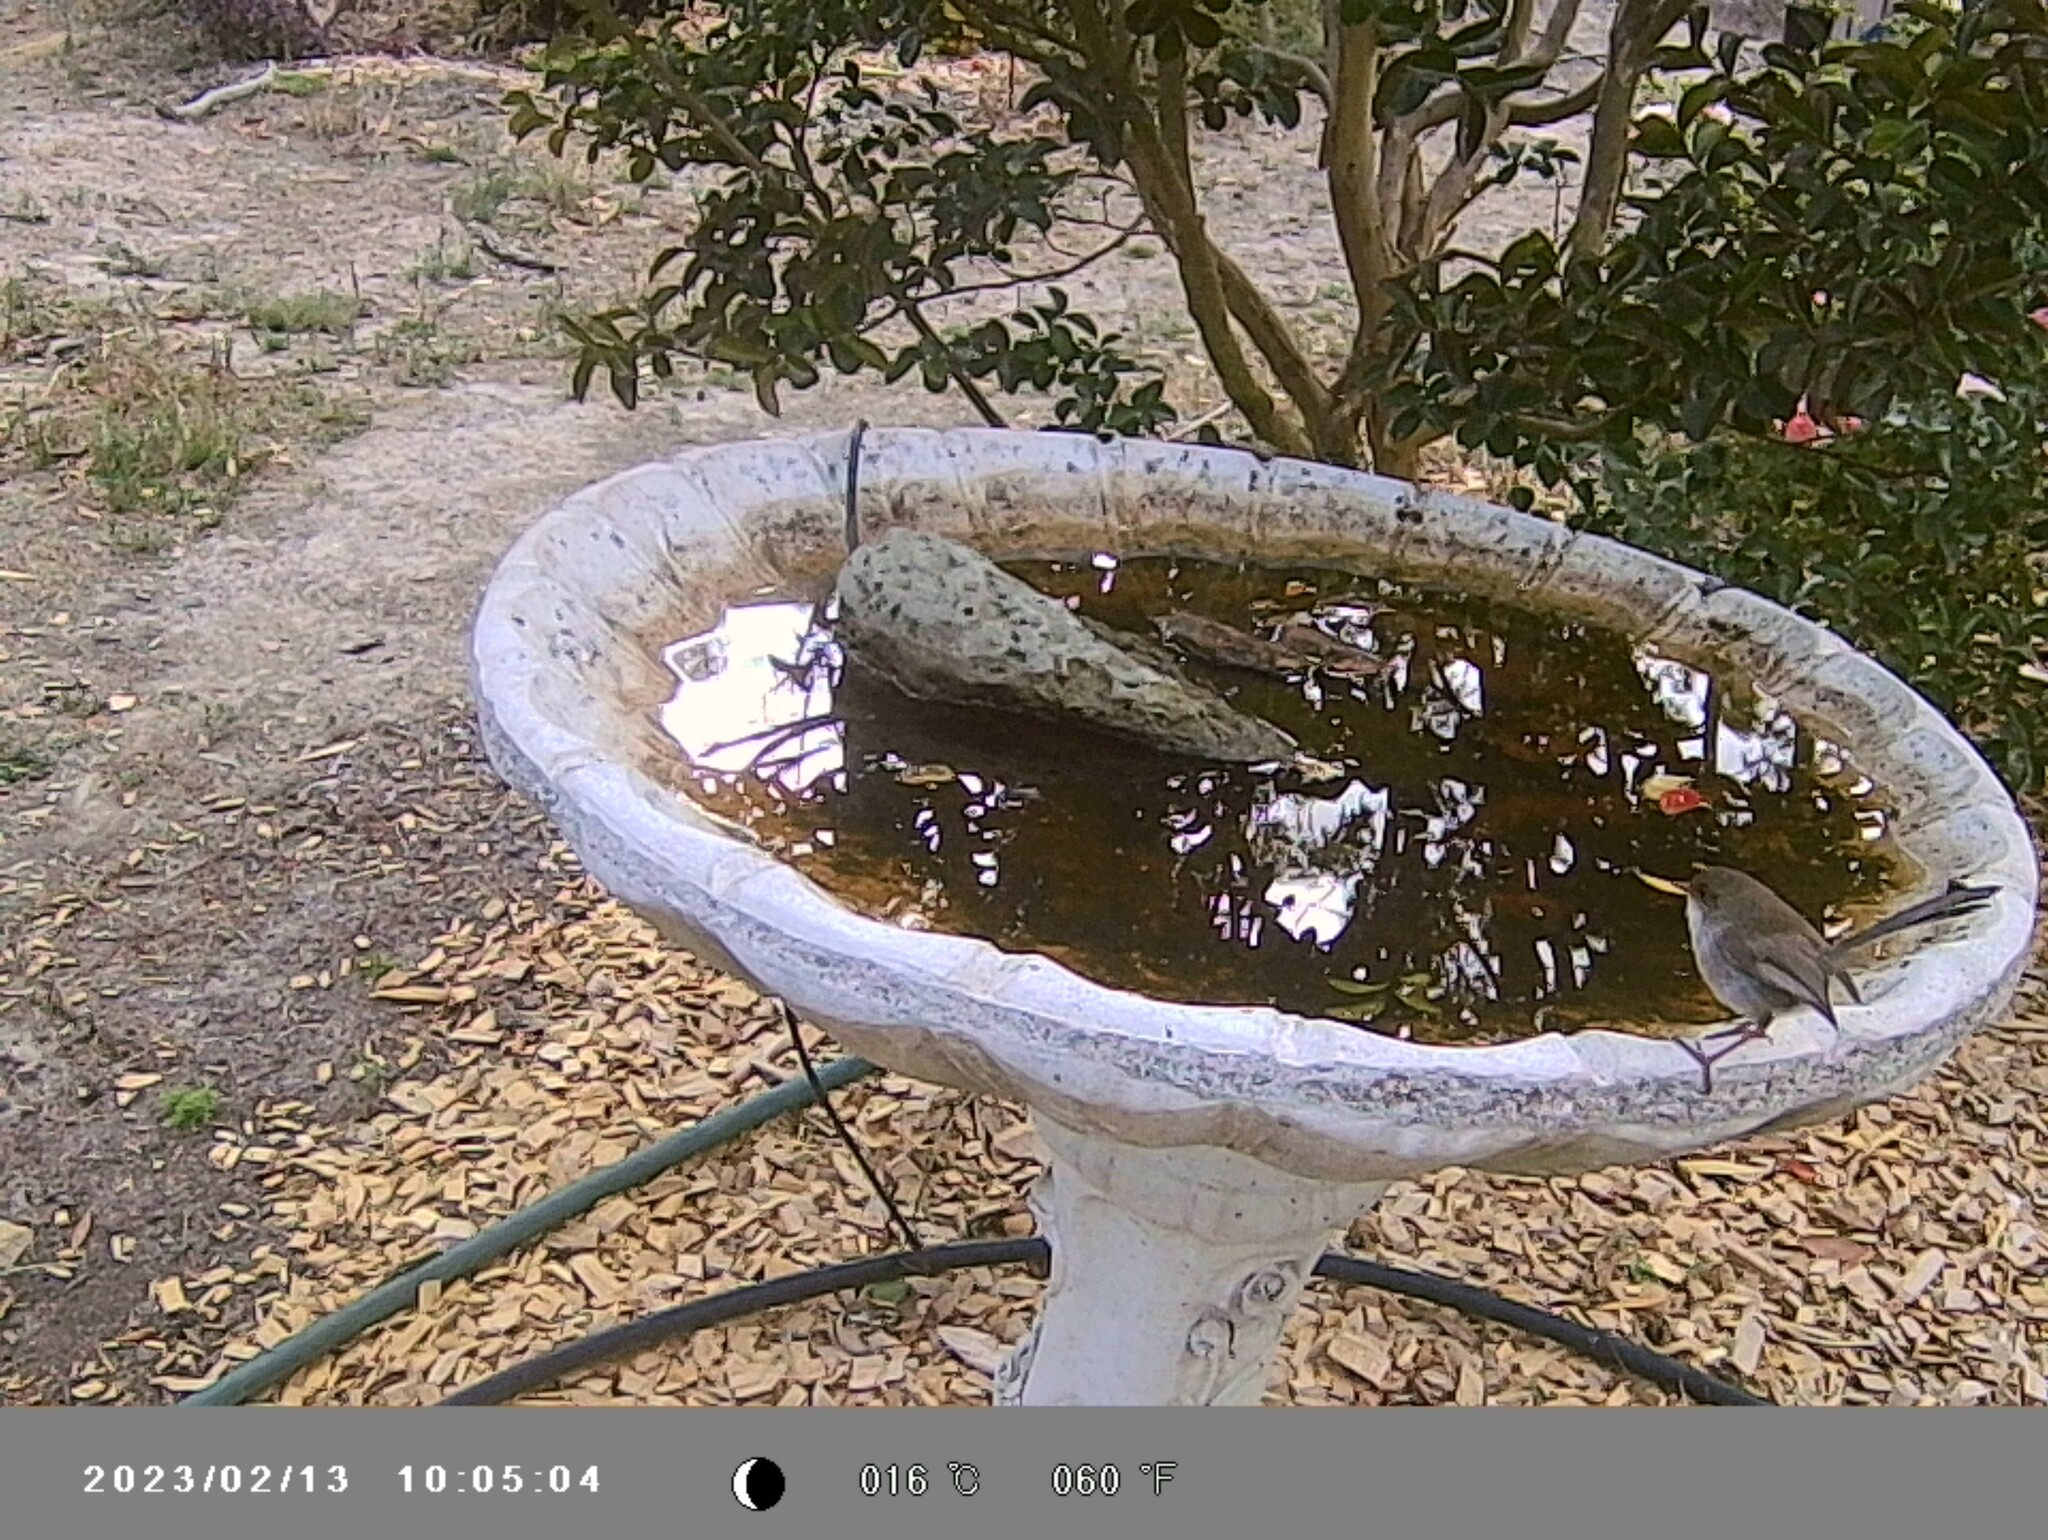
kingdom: Animalia
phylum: Chordata
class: Aves
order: Passeriformes
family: Maluridae
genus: Malurus
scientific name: Malurus cyaneus
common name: Superb fairywren
